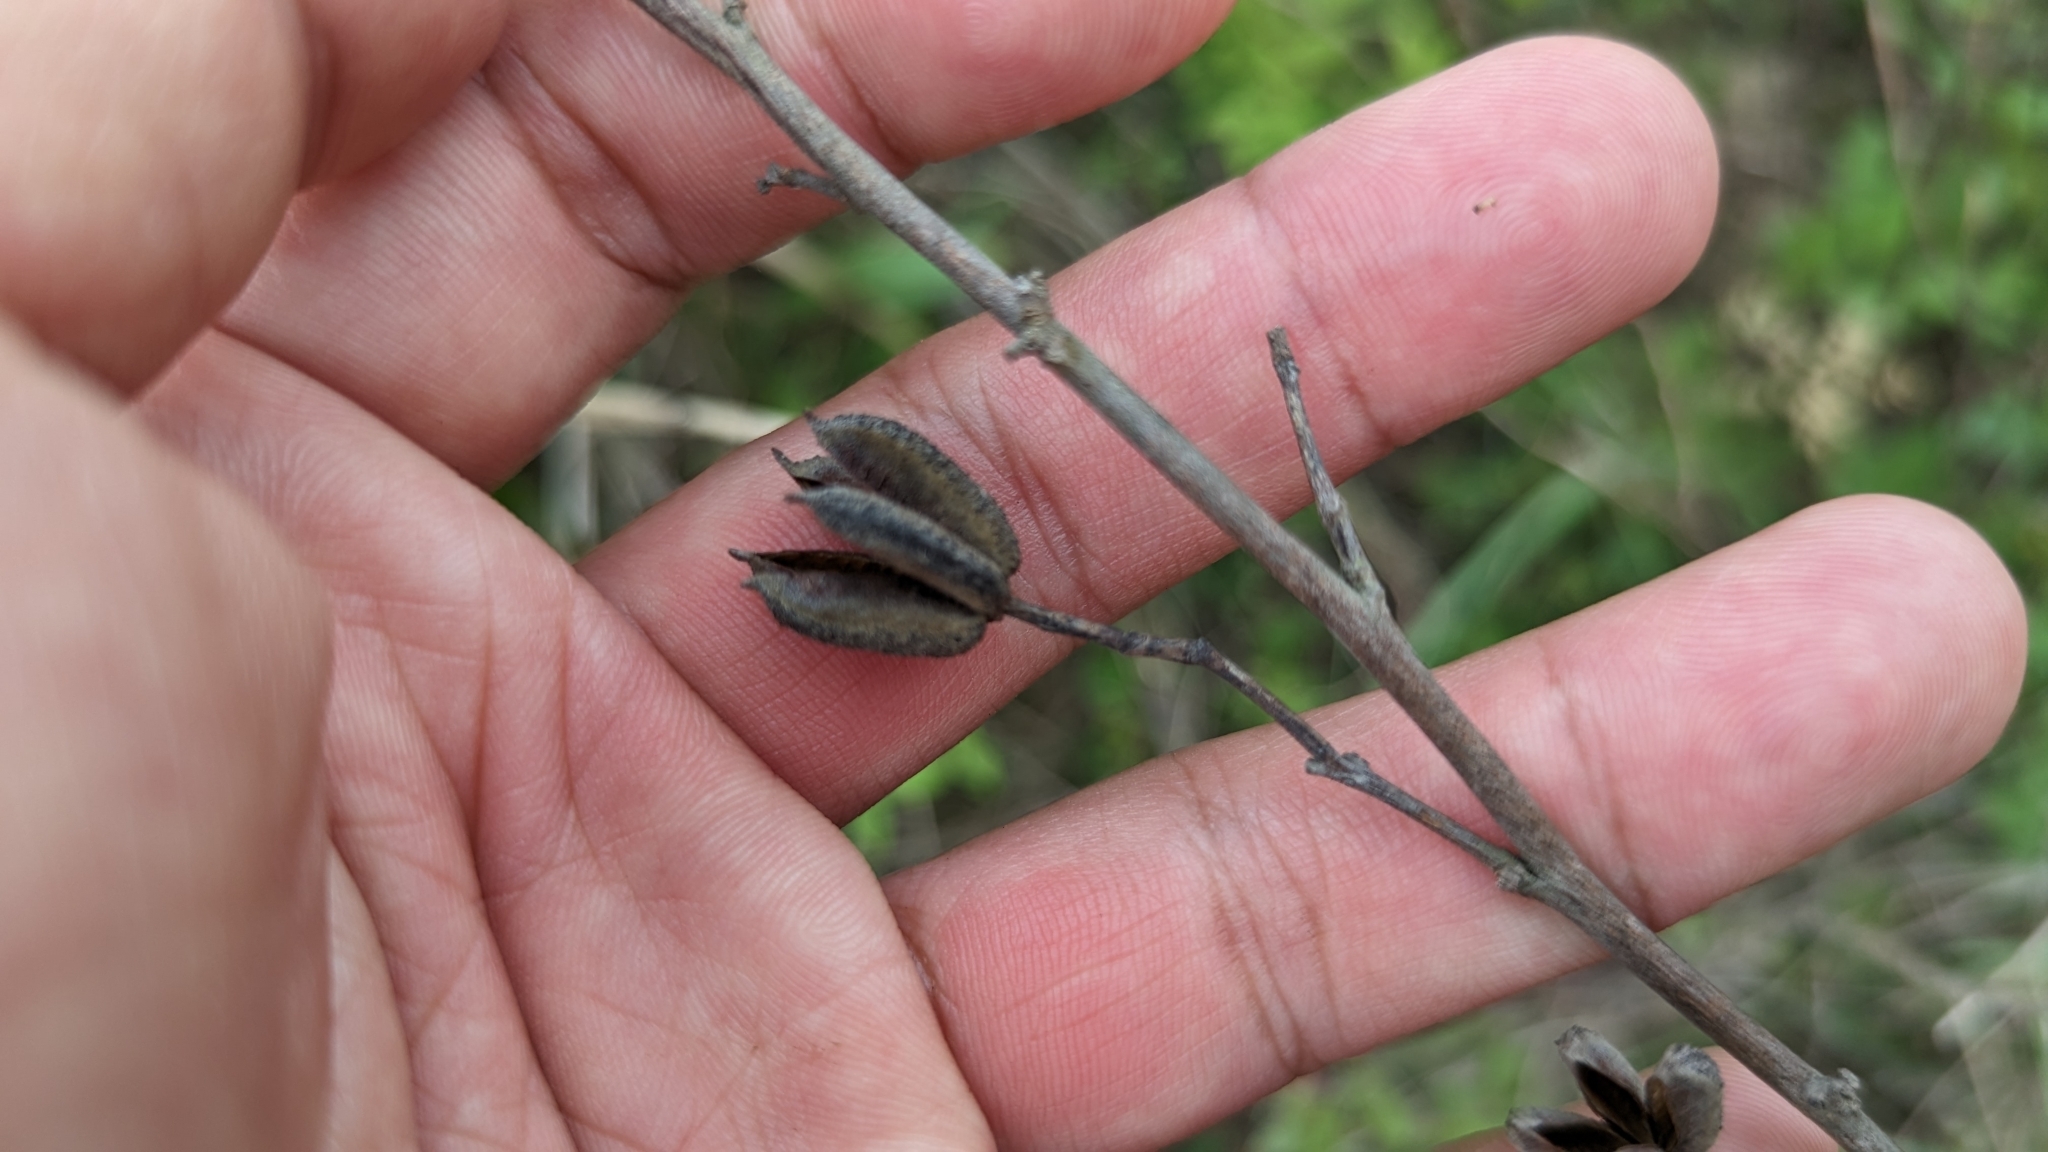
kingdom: Plantae
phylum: Tracheophyta
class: Magnoliopsida
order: Malvales
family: Malvaceae
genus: Helicteres
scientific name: Helicteres angustifolia
